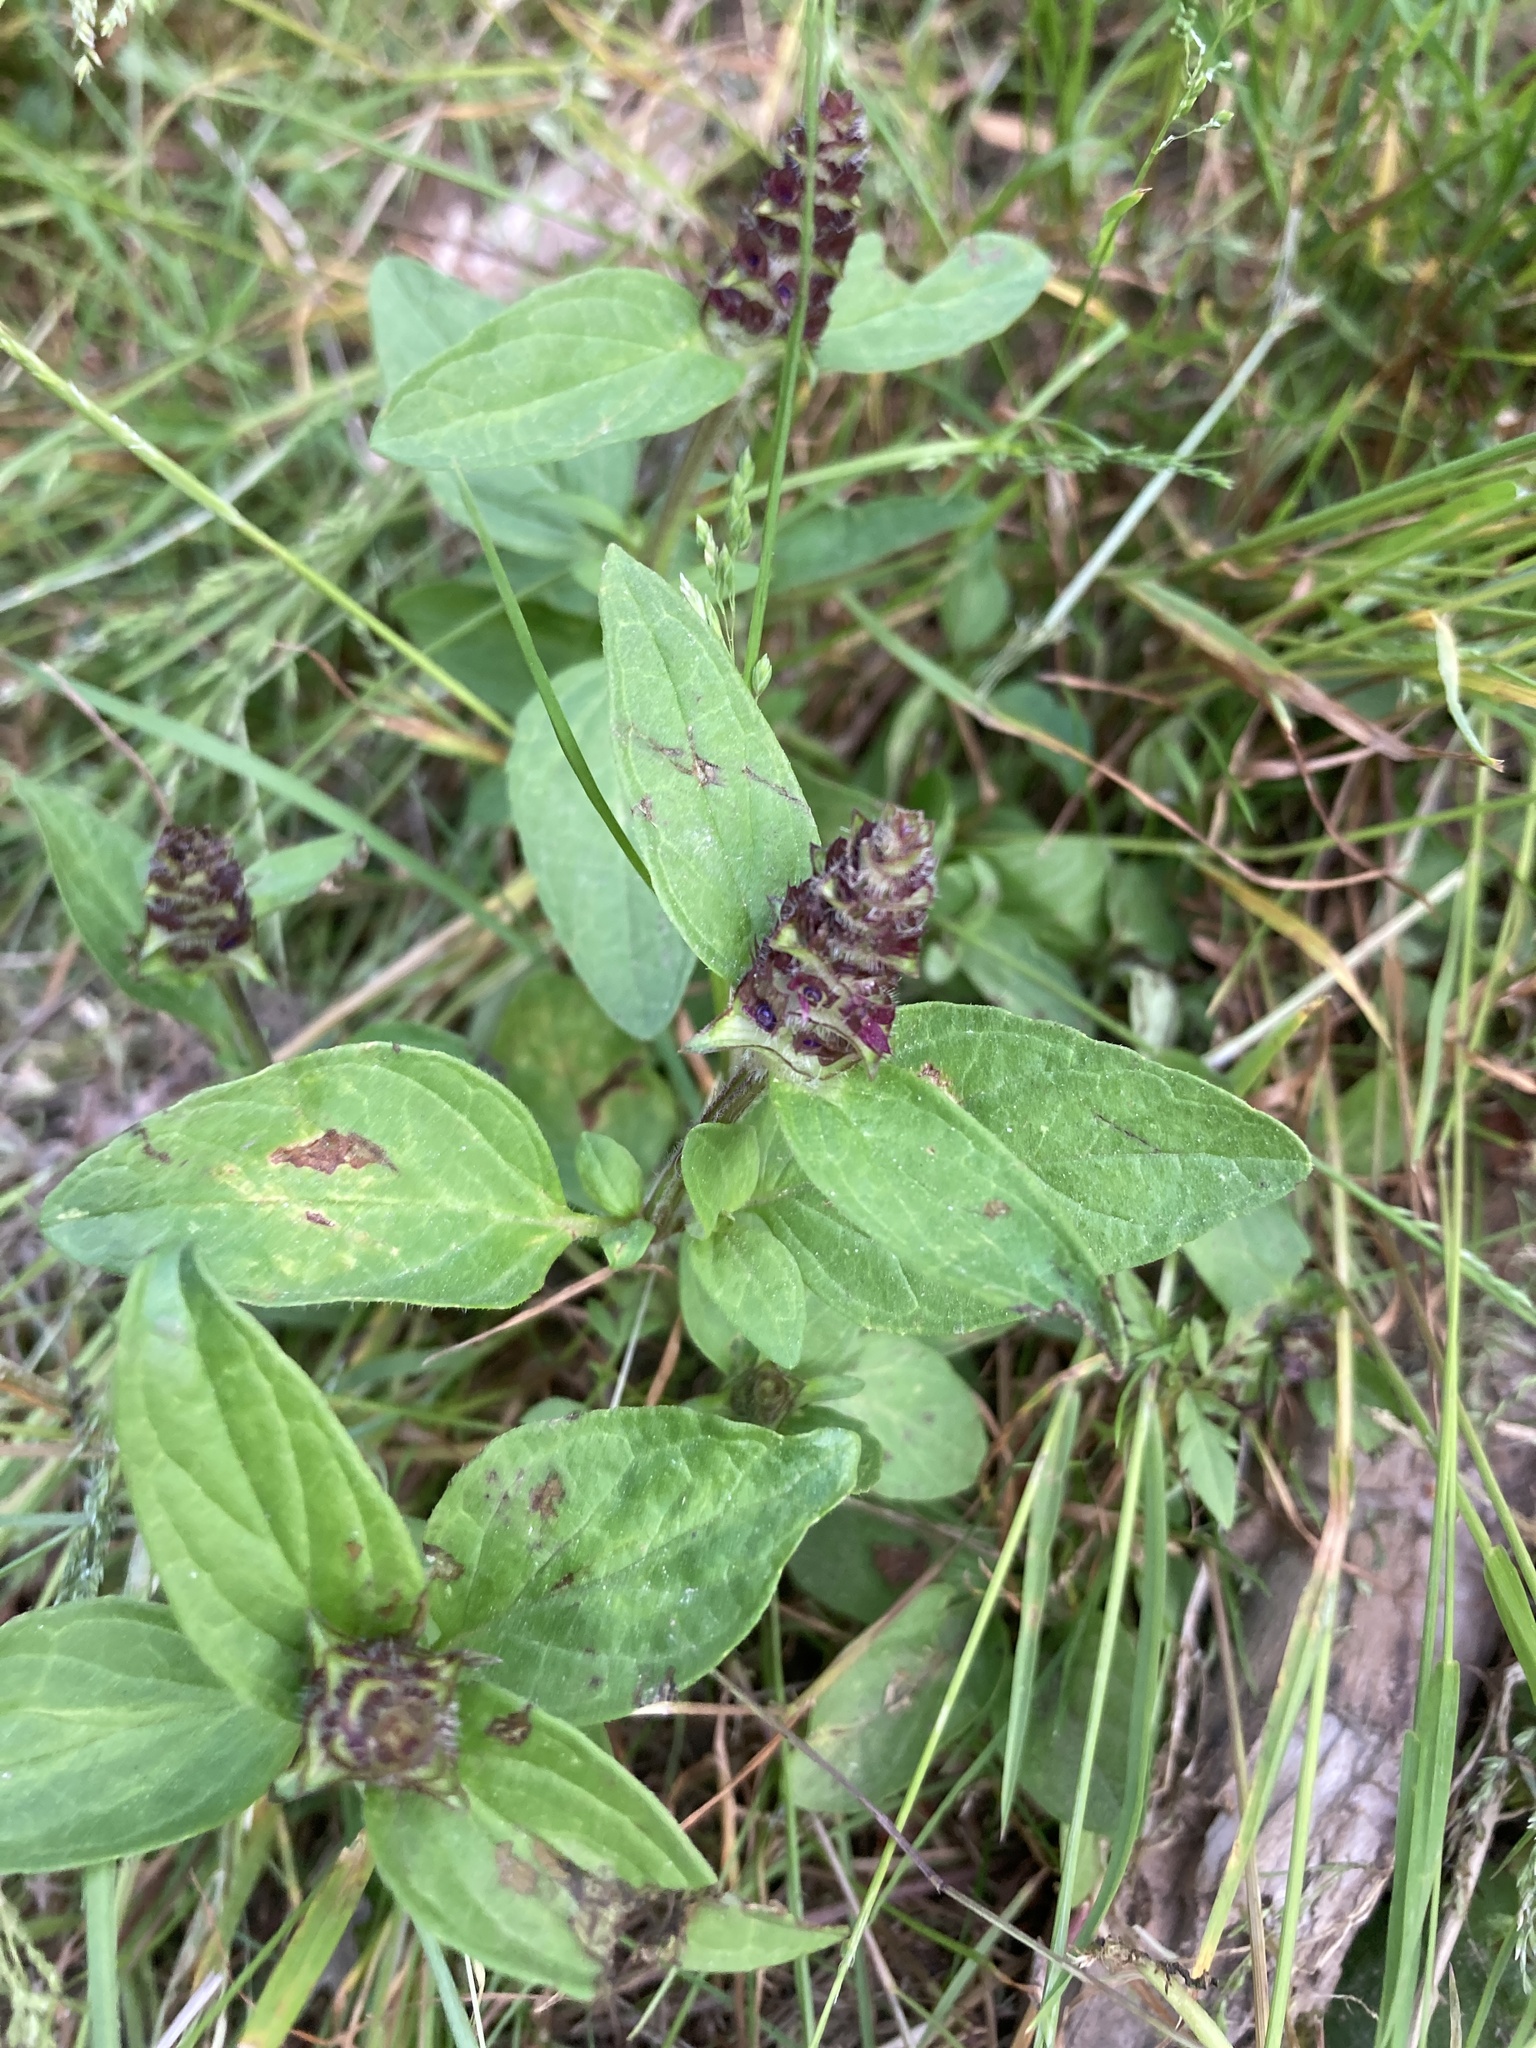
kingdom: Plantae
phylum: Tracheophyta
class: Magnoliopsida
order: Lamiales
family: Lamiaceae
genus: Prunella
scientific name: Prunella vulgaris
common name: Heal-all
